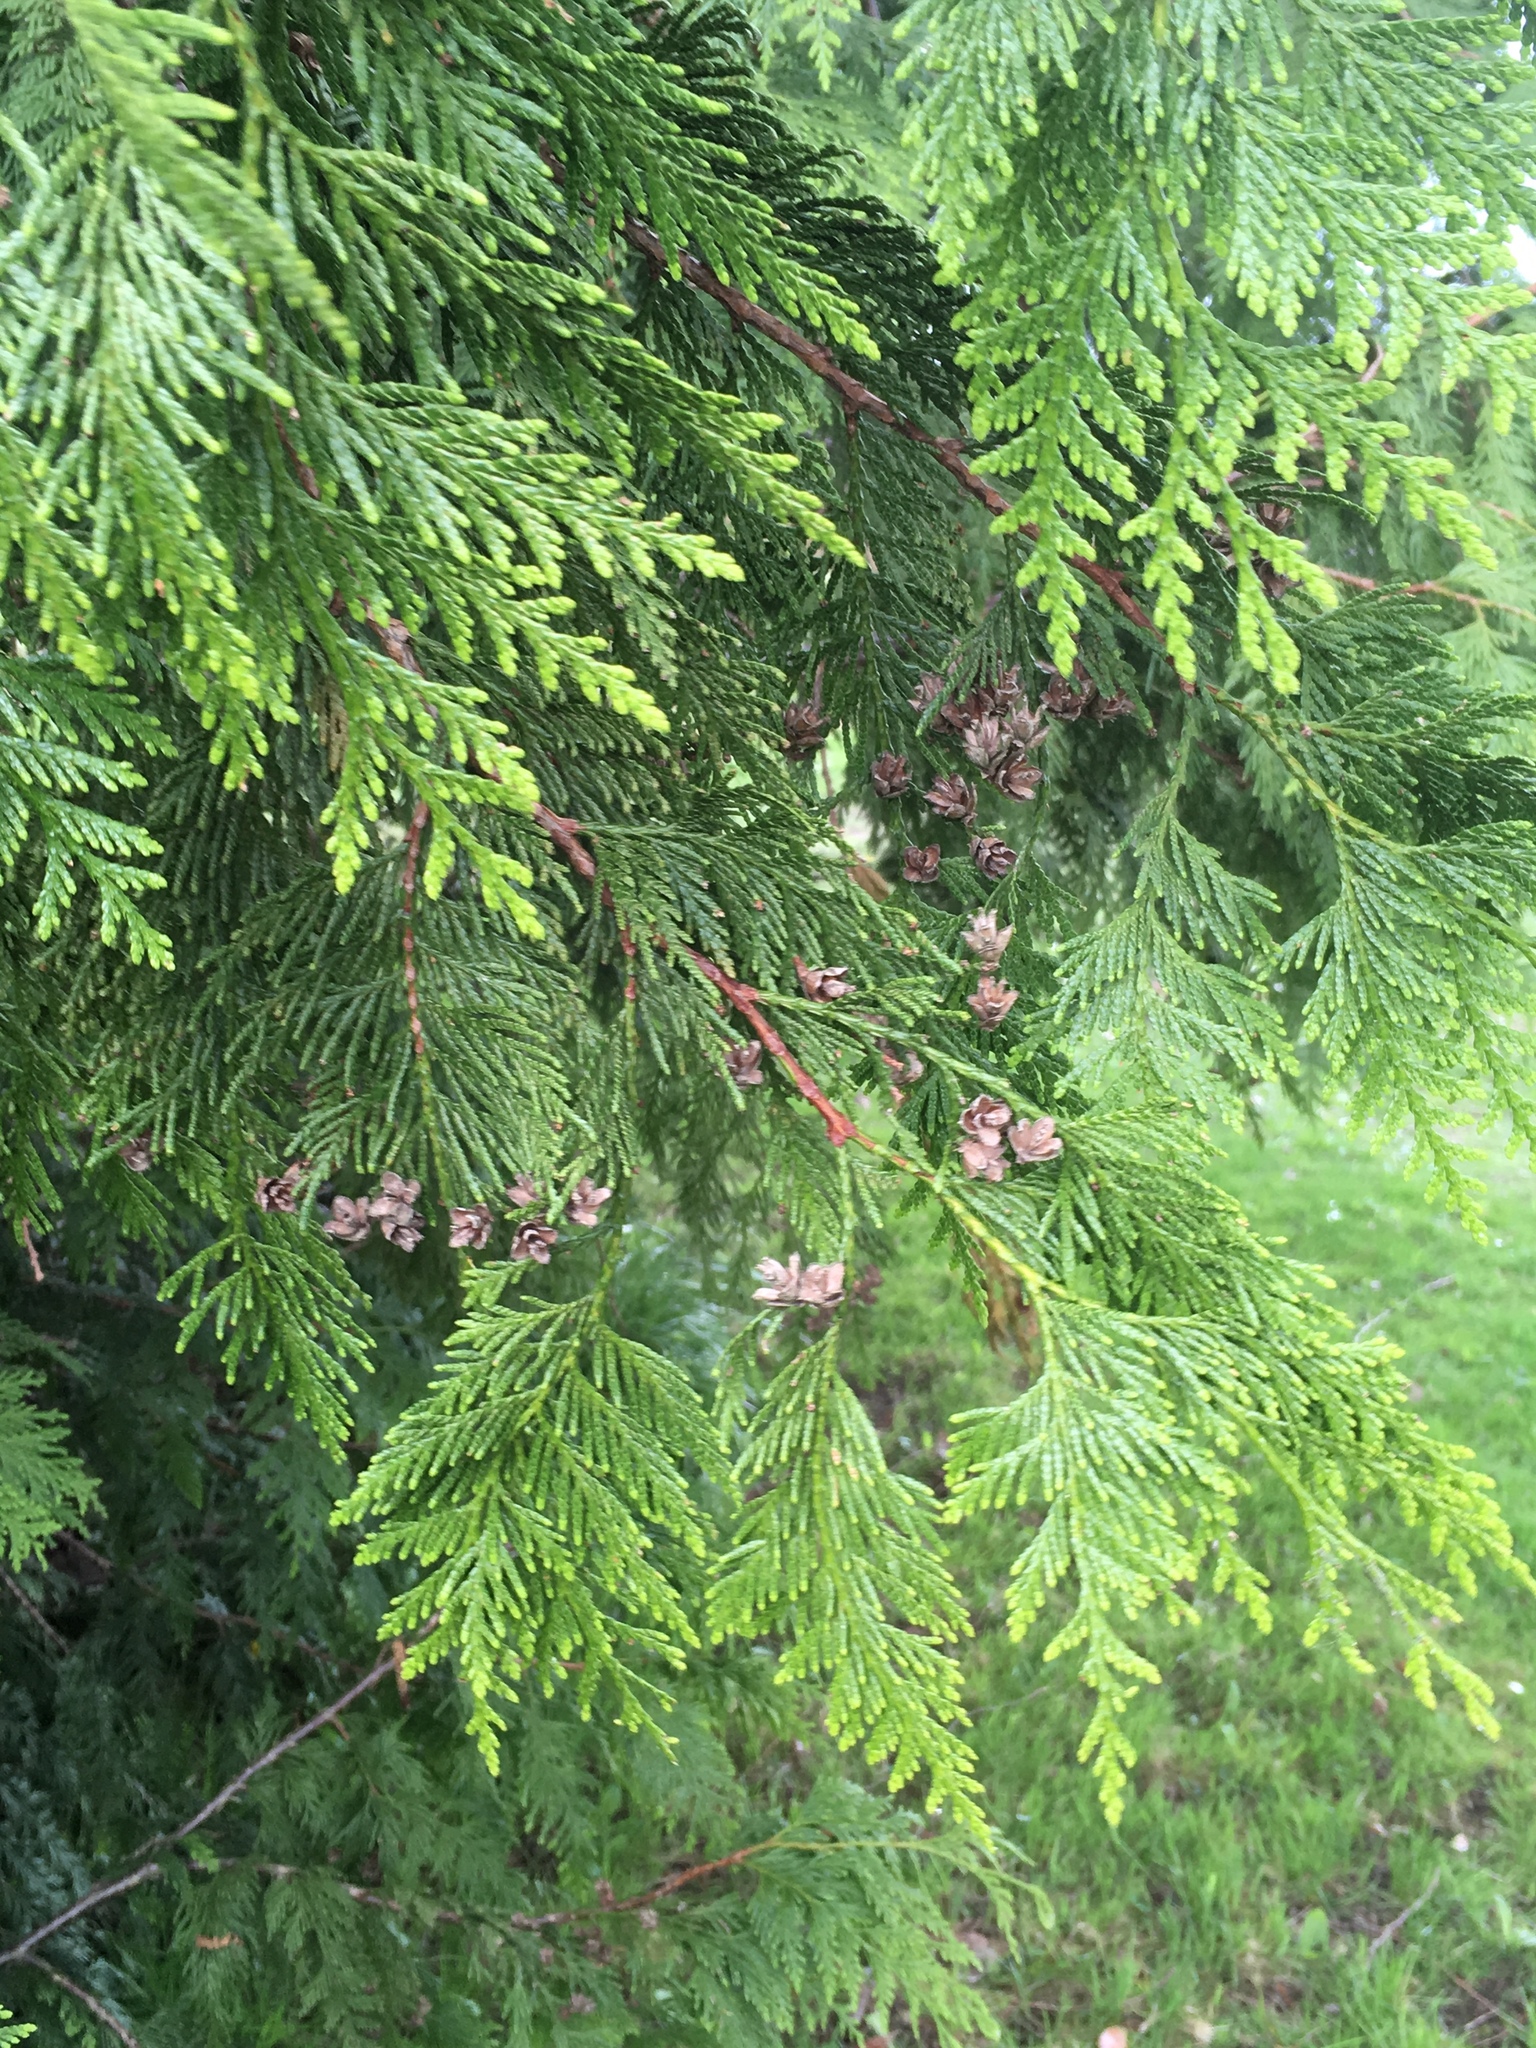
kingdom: Plantae
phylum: Tracheophyta
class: Pinopsida
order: Pinales
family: Cupressaceae
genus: Thuja
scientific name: Thuja plicata
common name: Western red-cedar
